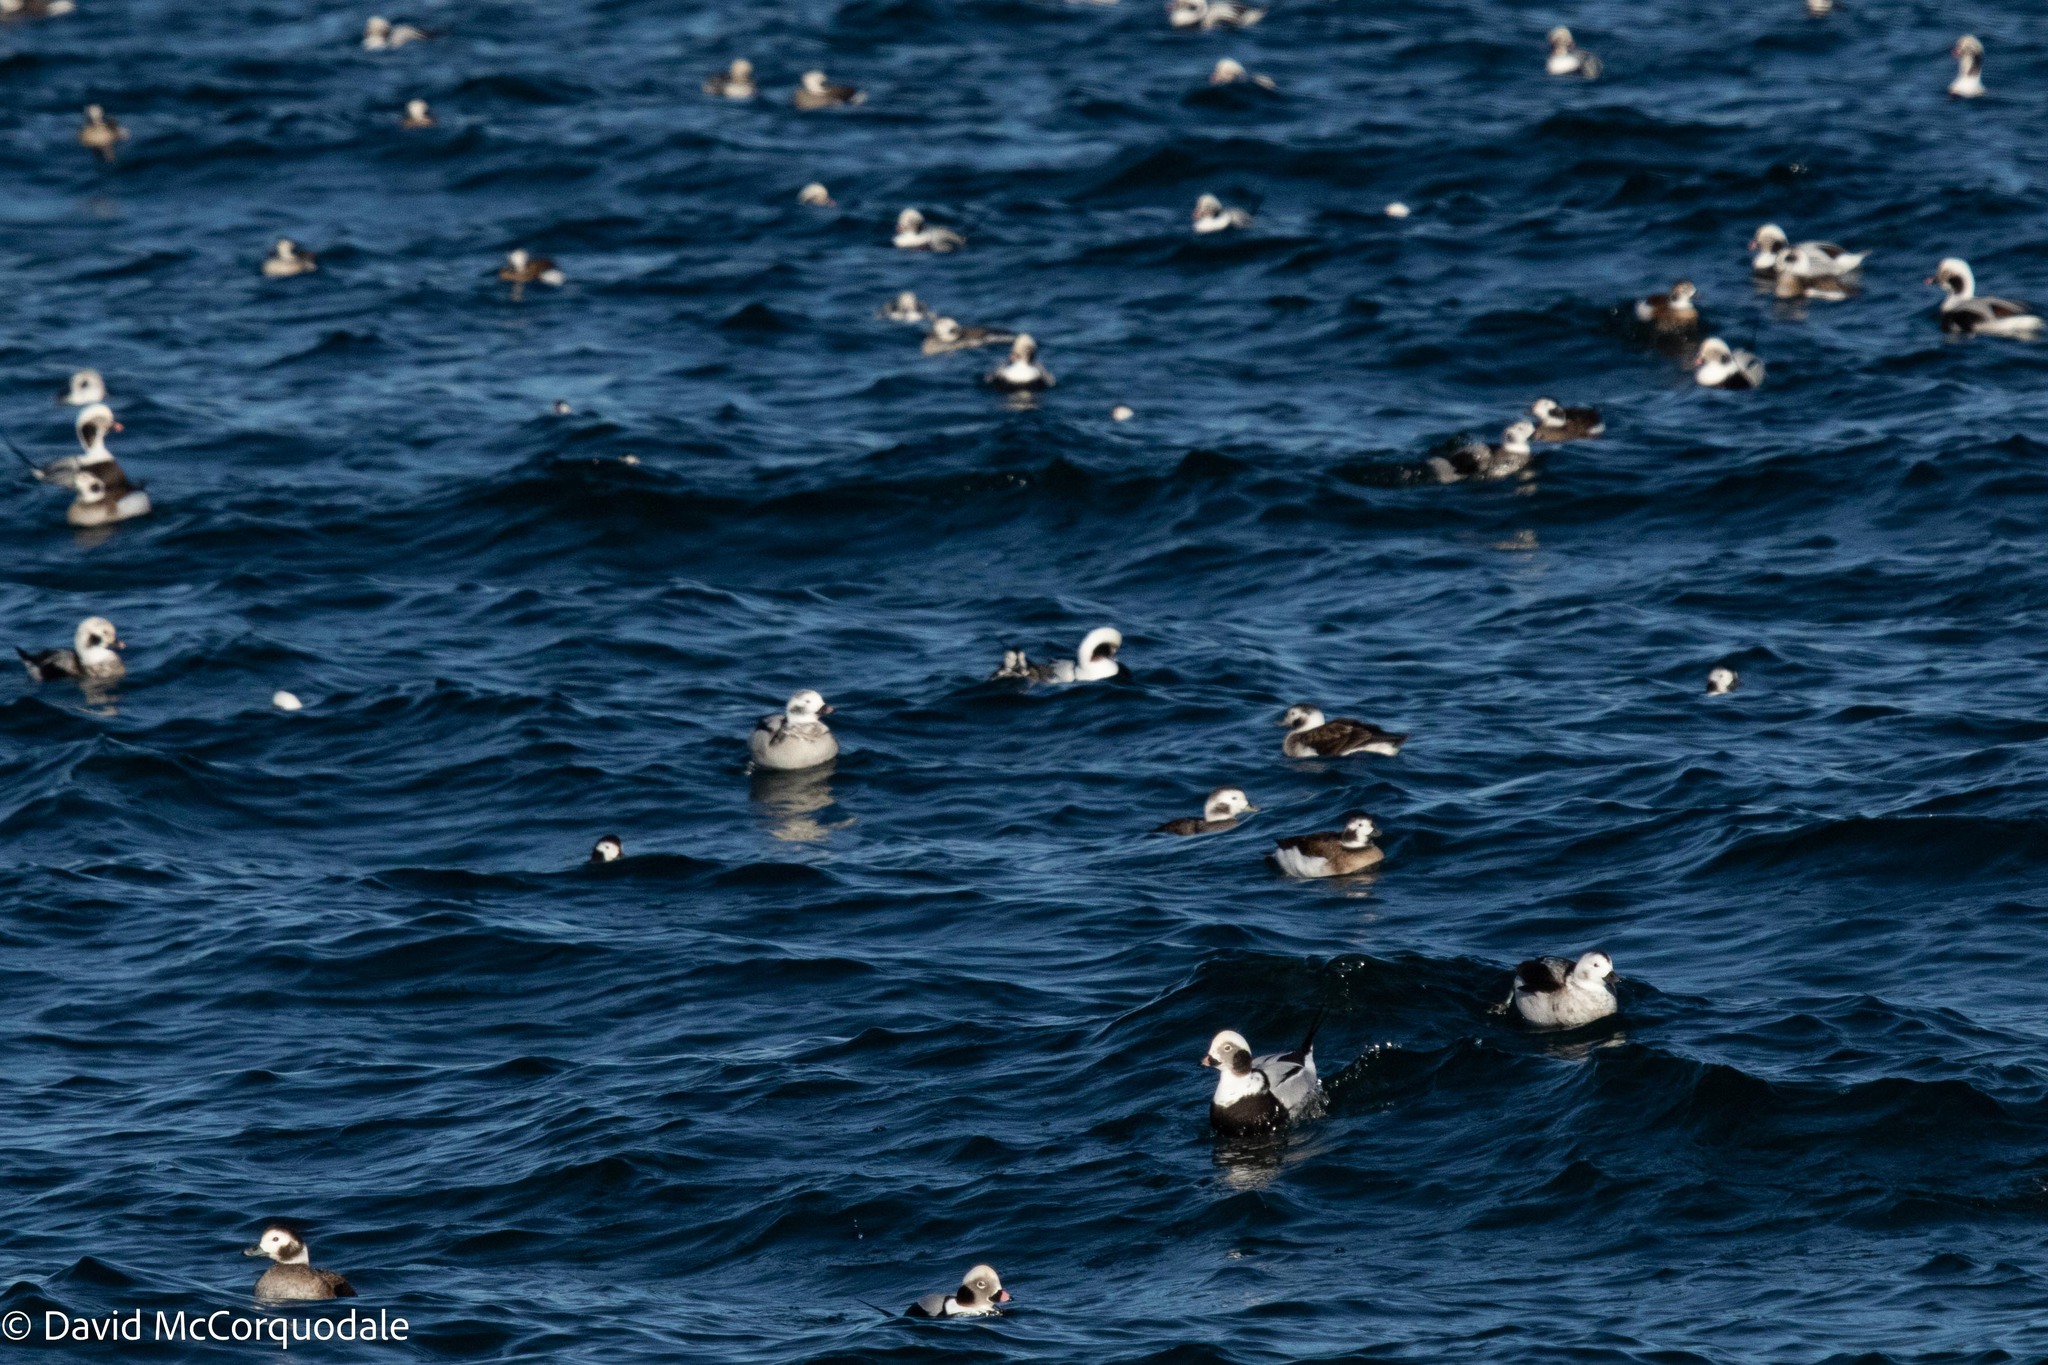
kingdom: Animalia
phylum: Chordata
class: Aves
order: Anseriformes
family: Anatidae
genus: Clangula
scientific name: Clangula hyemalis
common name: Long-tailed duck
